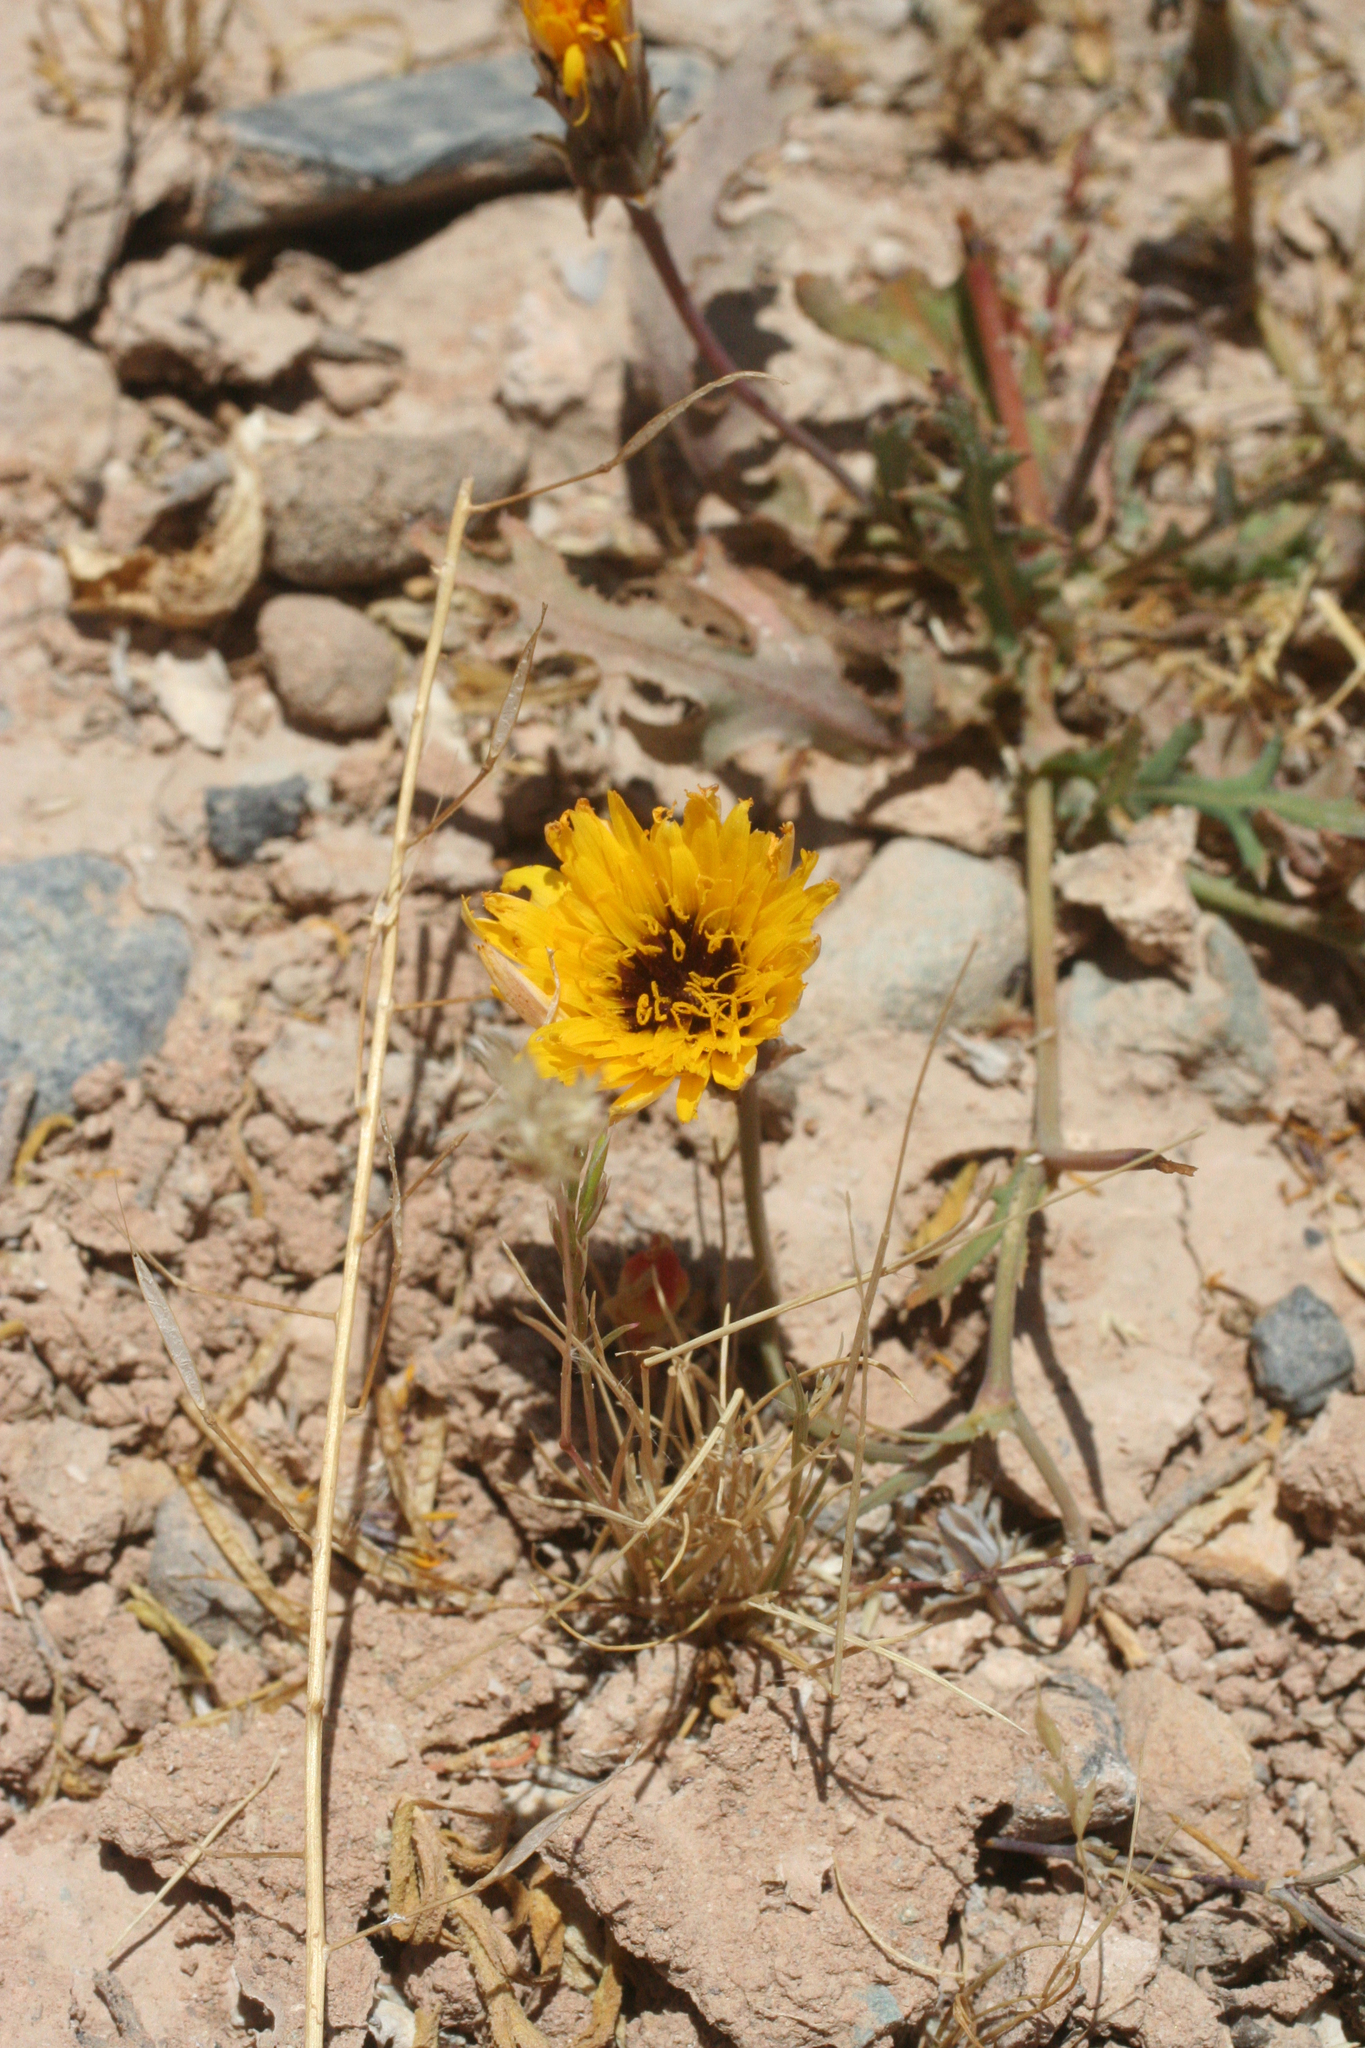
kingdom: Plantae
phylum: Tracheophyta
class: Magnoliopsida
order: Asterales
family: Asteraceae
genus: Reichardia
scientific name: Reichardia tingitana
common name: Reichardia
